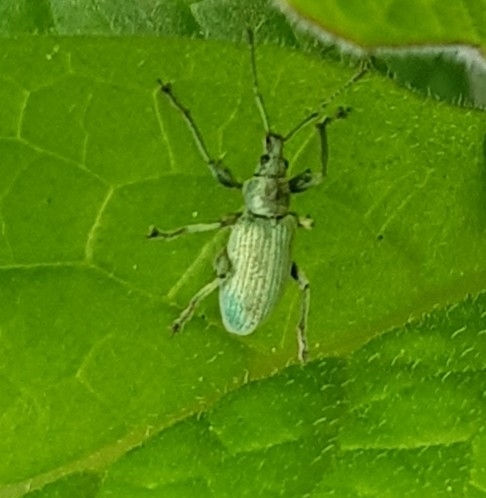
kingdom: Animalia
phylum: Arthropoda
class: Insecta
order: Coleoptera
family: Curculionidae
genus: Phyllobius
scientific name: Phyllobius pomaceus
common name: Green nettle weevil
